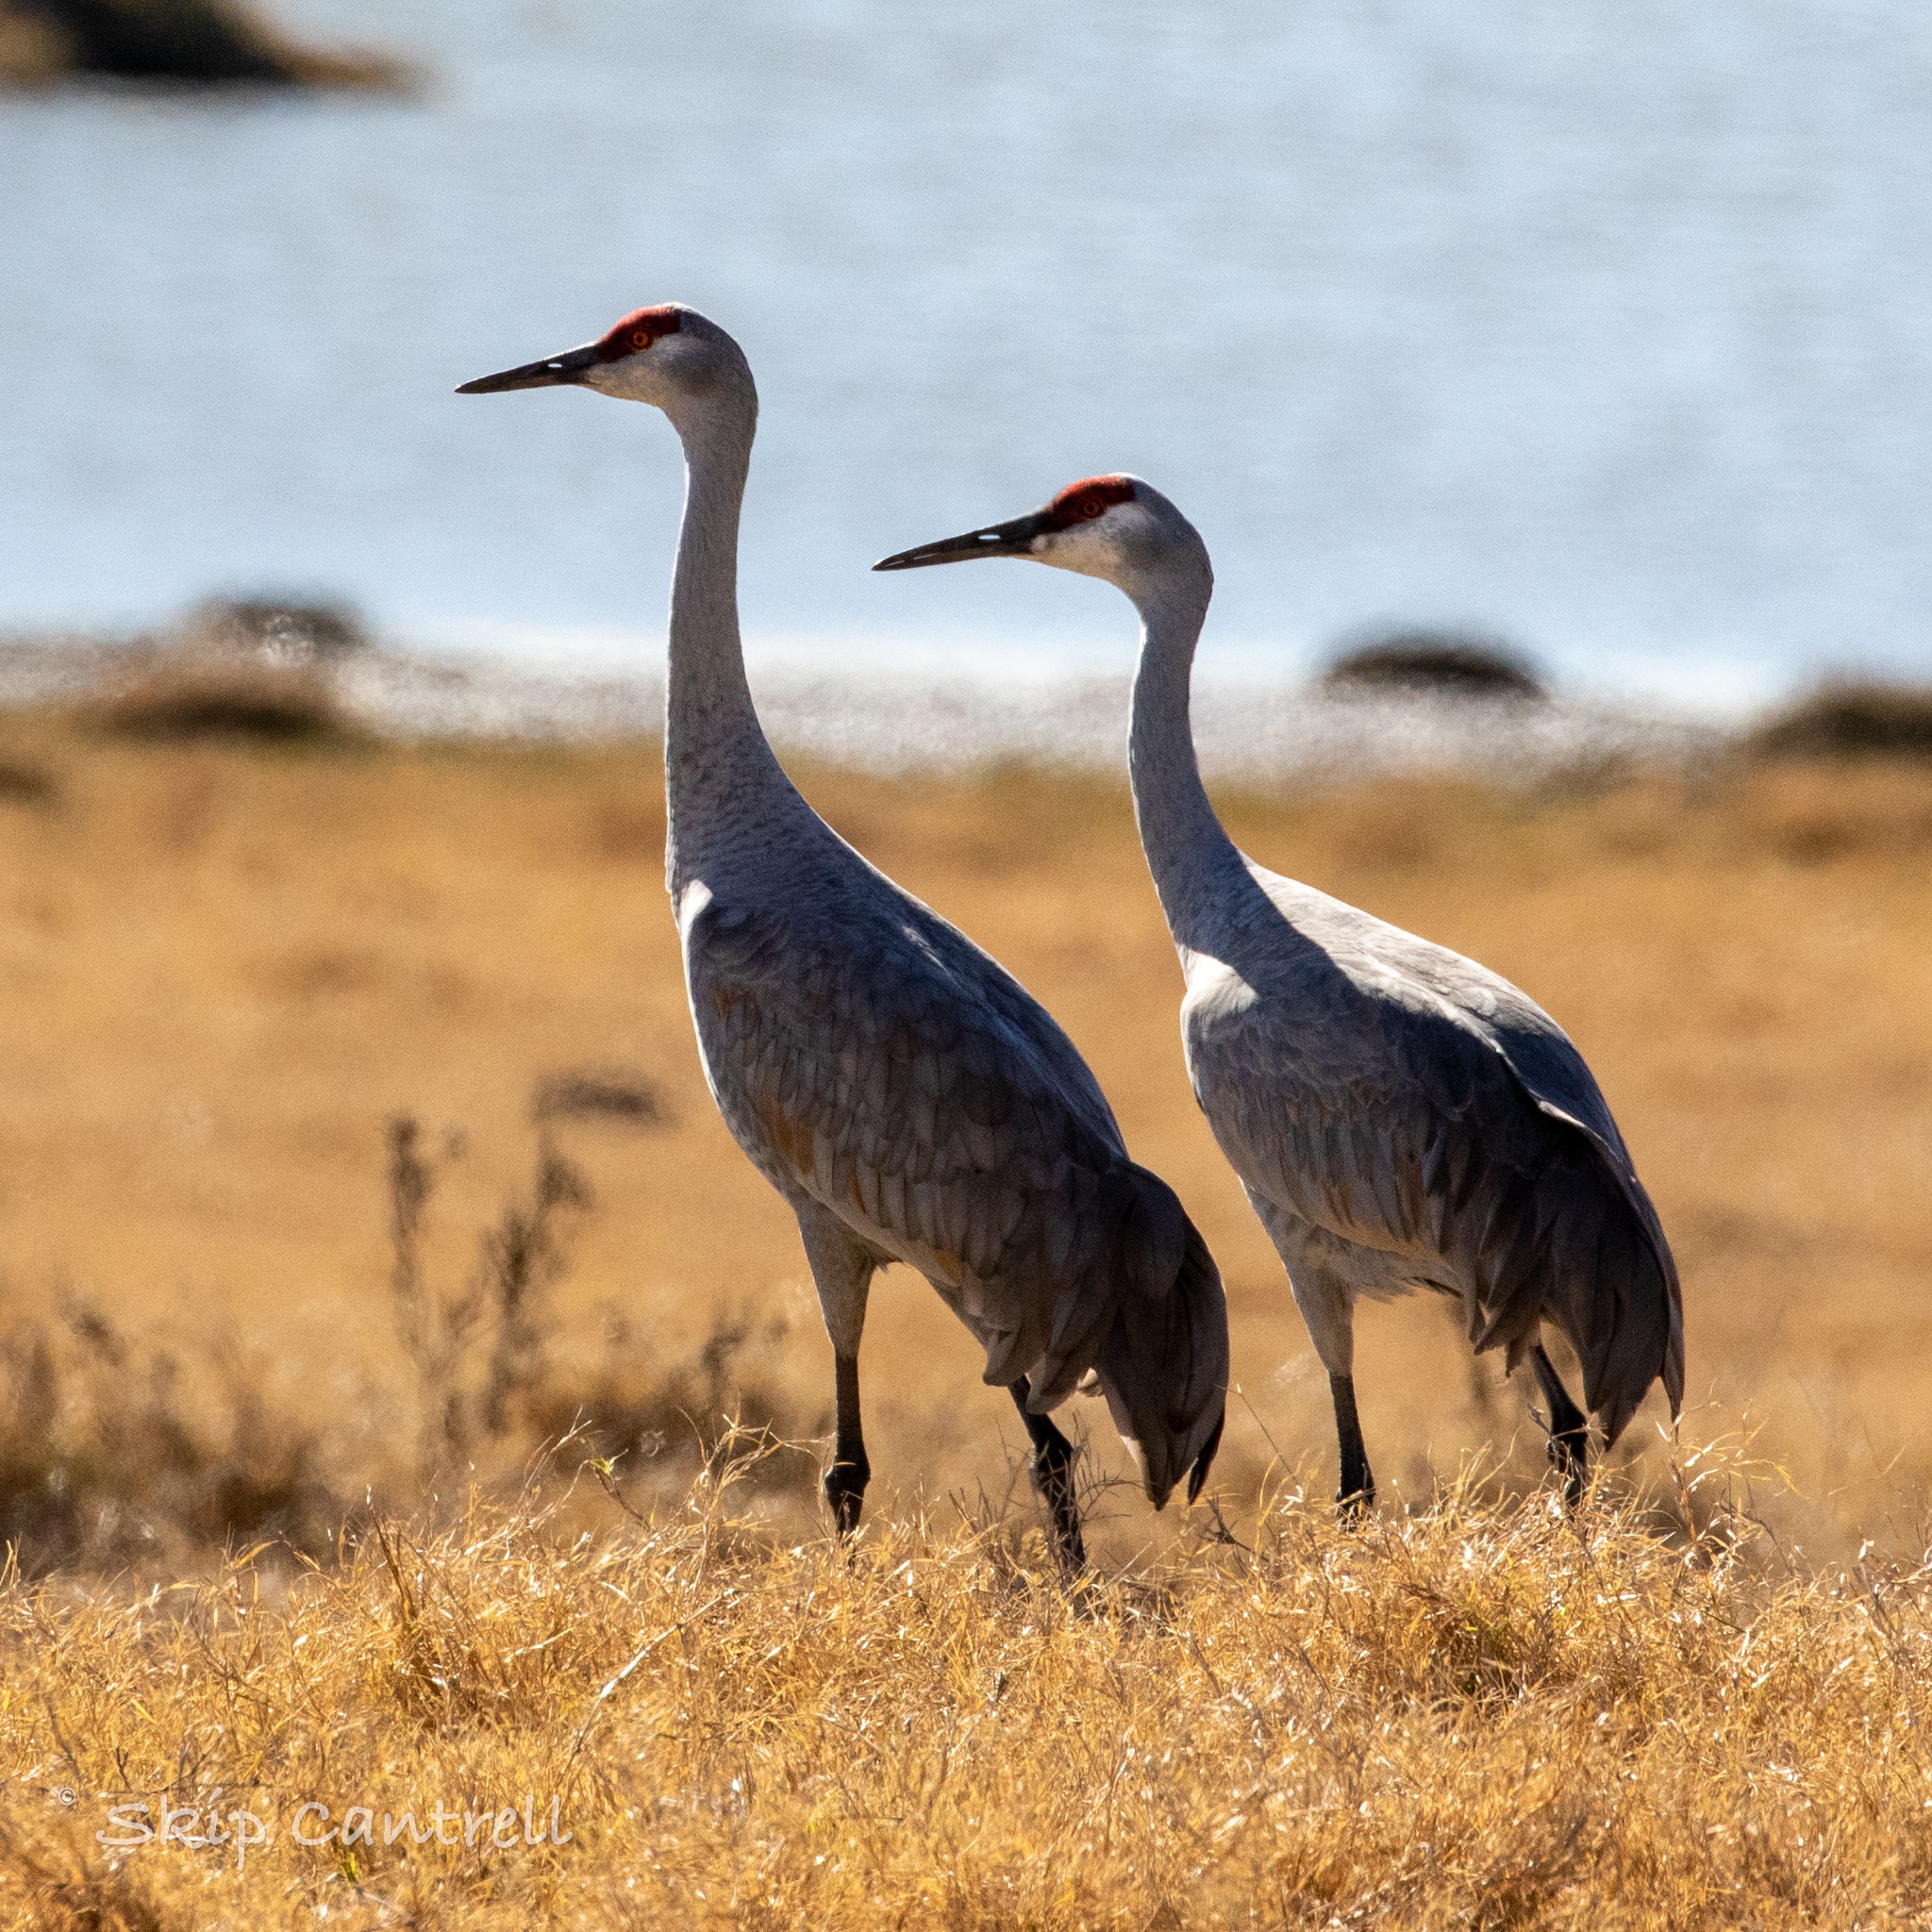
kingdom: Animalia
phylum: Chordata
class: Aves
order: Gruiformes
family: Gruidae
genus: Grus
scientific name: Grus canadensis
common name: Sandhill crane
